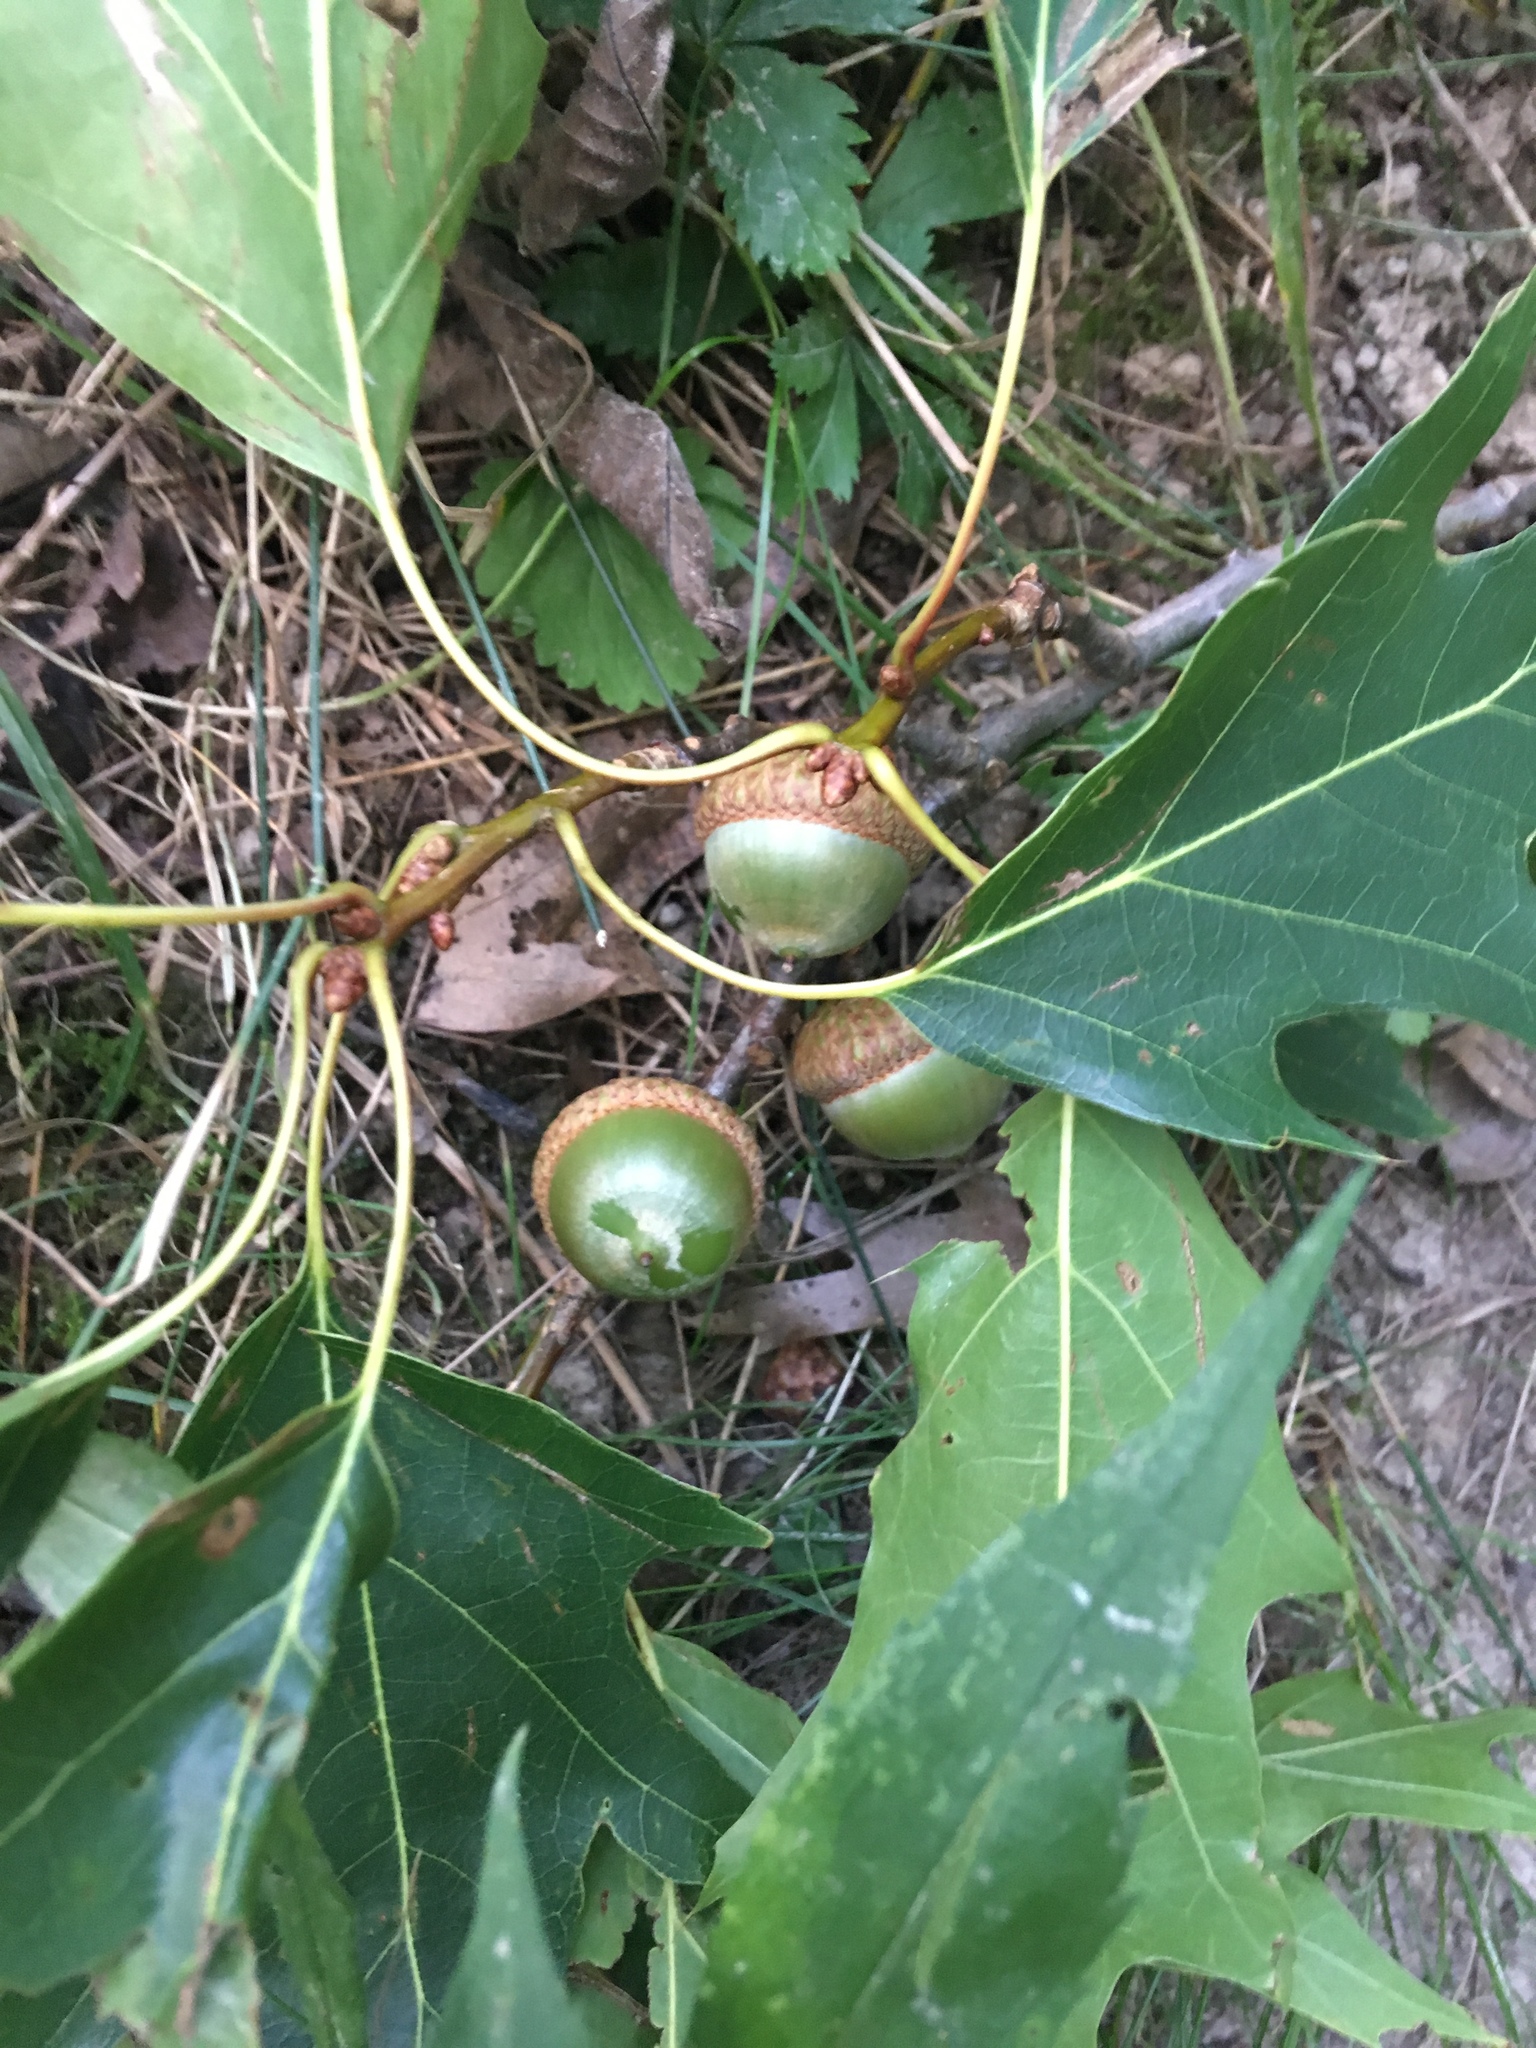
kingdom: Plantae
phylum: Tracheophyta
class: Magnoliopsida
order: Fagales
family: Fagaceae
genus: Quercus
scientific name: Quercus rubra
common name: Red oak
